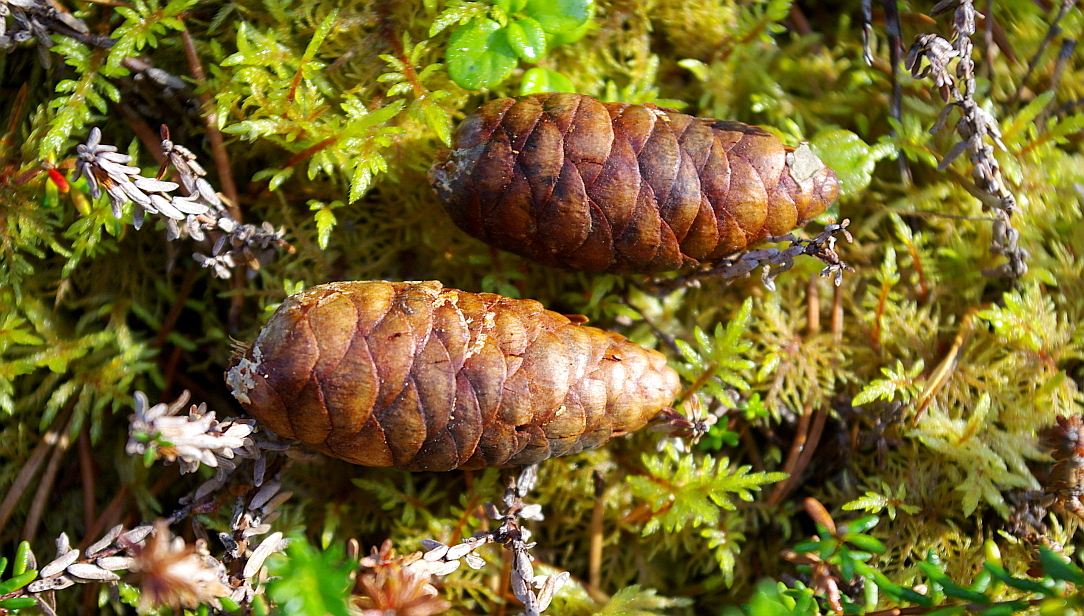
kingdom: Plantae
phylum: Tracheophyta
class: Pinopsida
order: Pinales
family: Pinaceae
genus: Picea
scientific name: Picea obovata
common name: Siberian spruce
